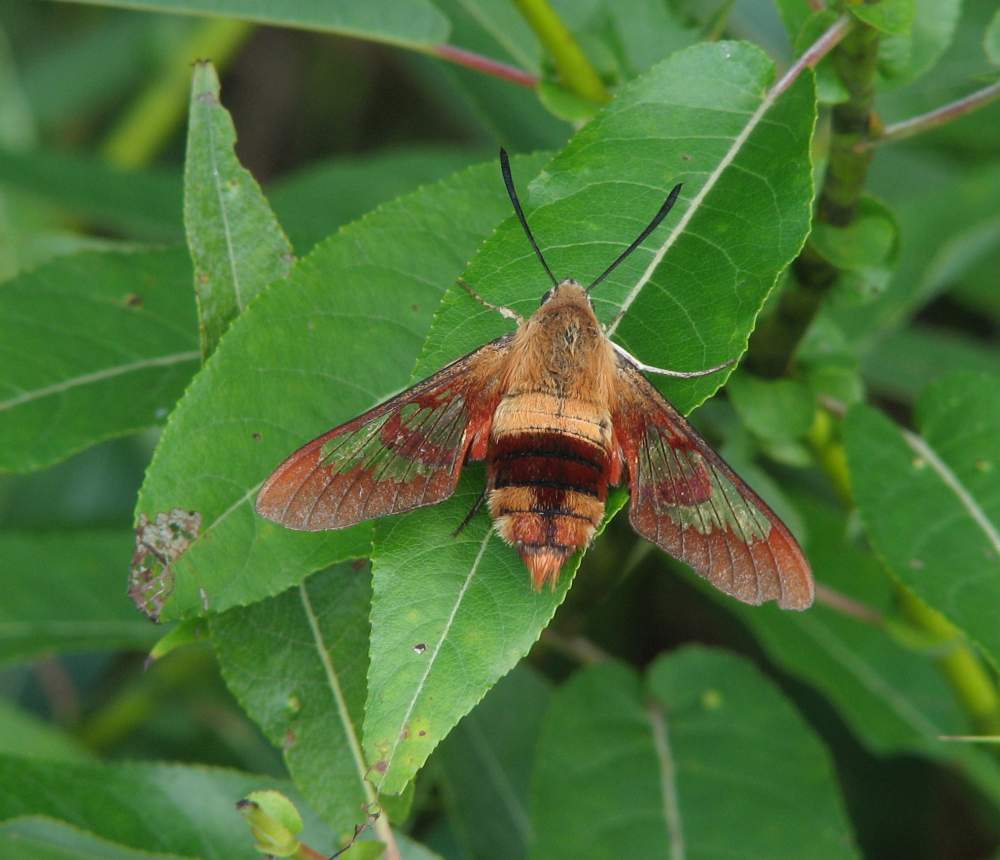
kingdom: Animalia
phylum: Arthropoda
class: Insecta
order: Lepidoptera
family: Sphingidae
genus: Hemaris
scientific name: Hemaris thysbe
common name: Common clear-wing
